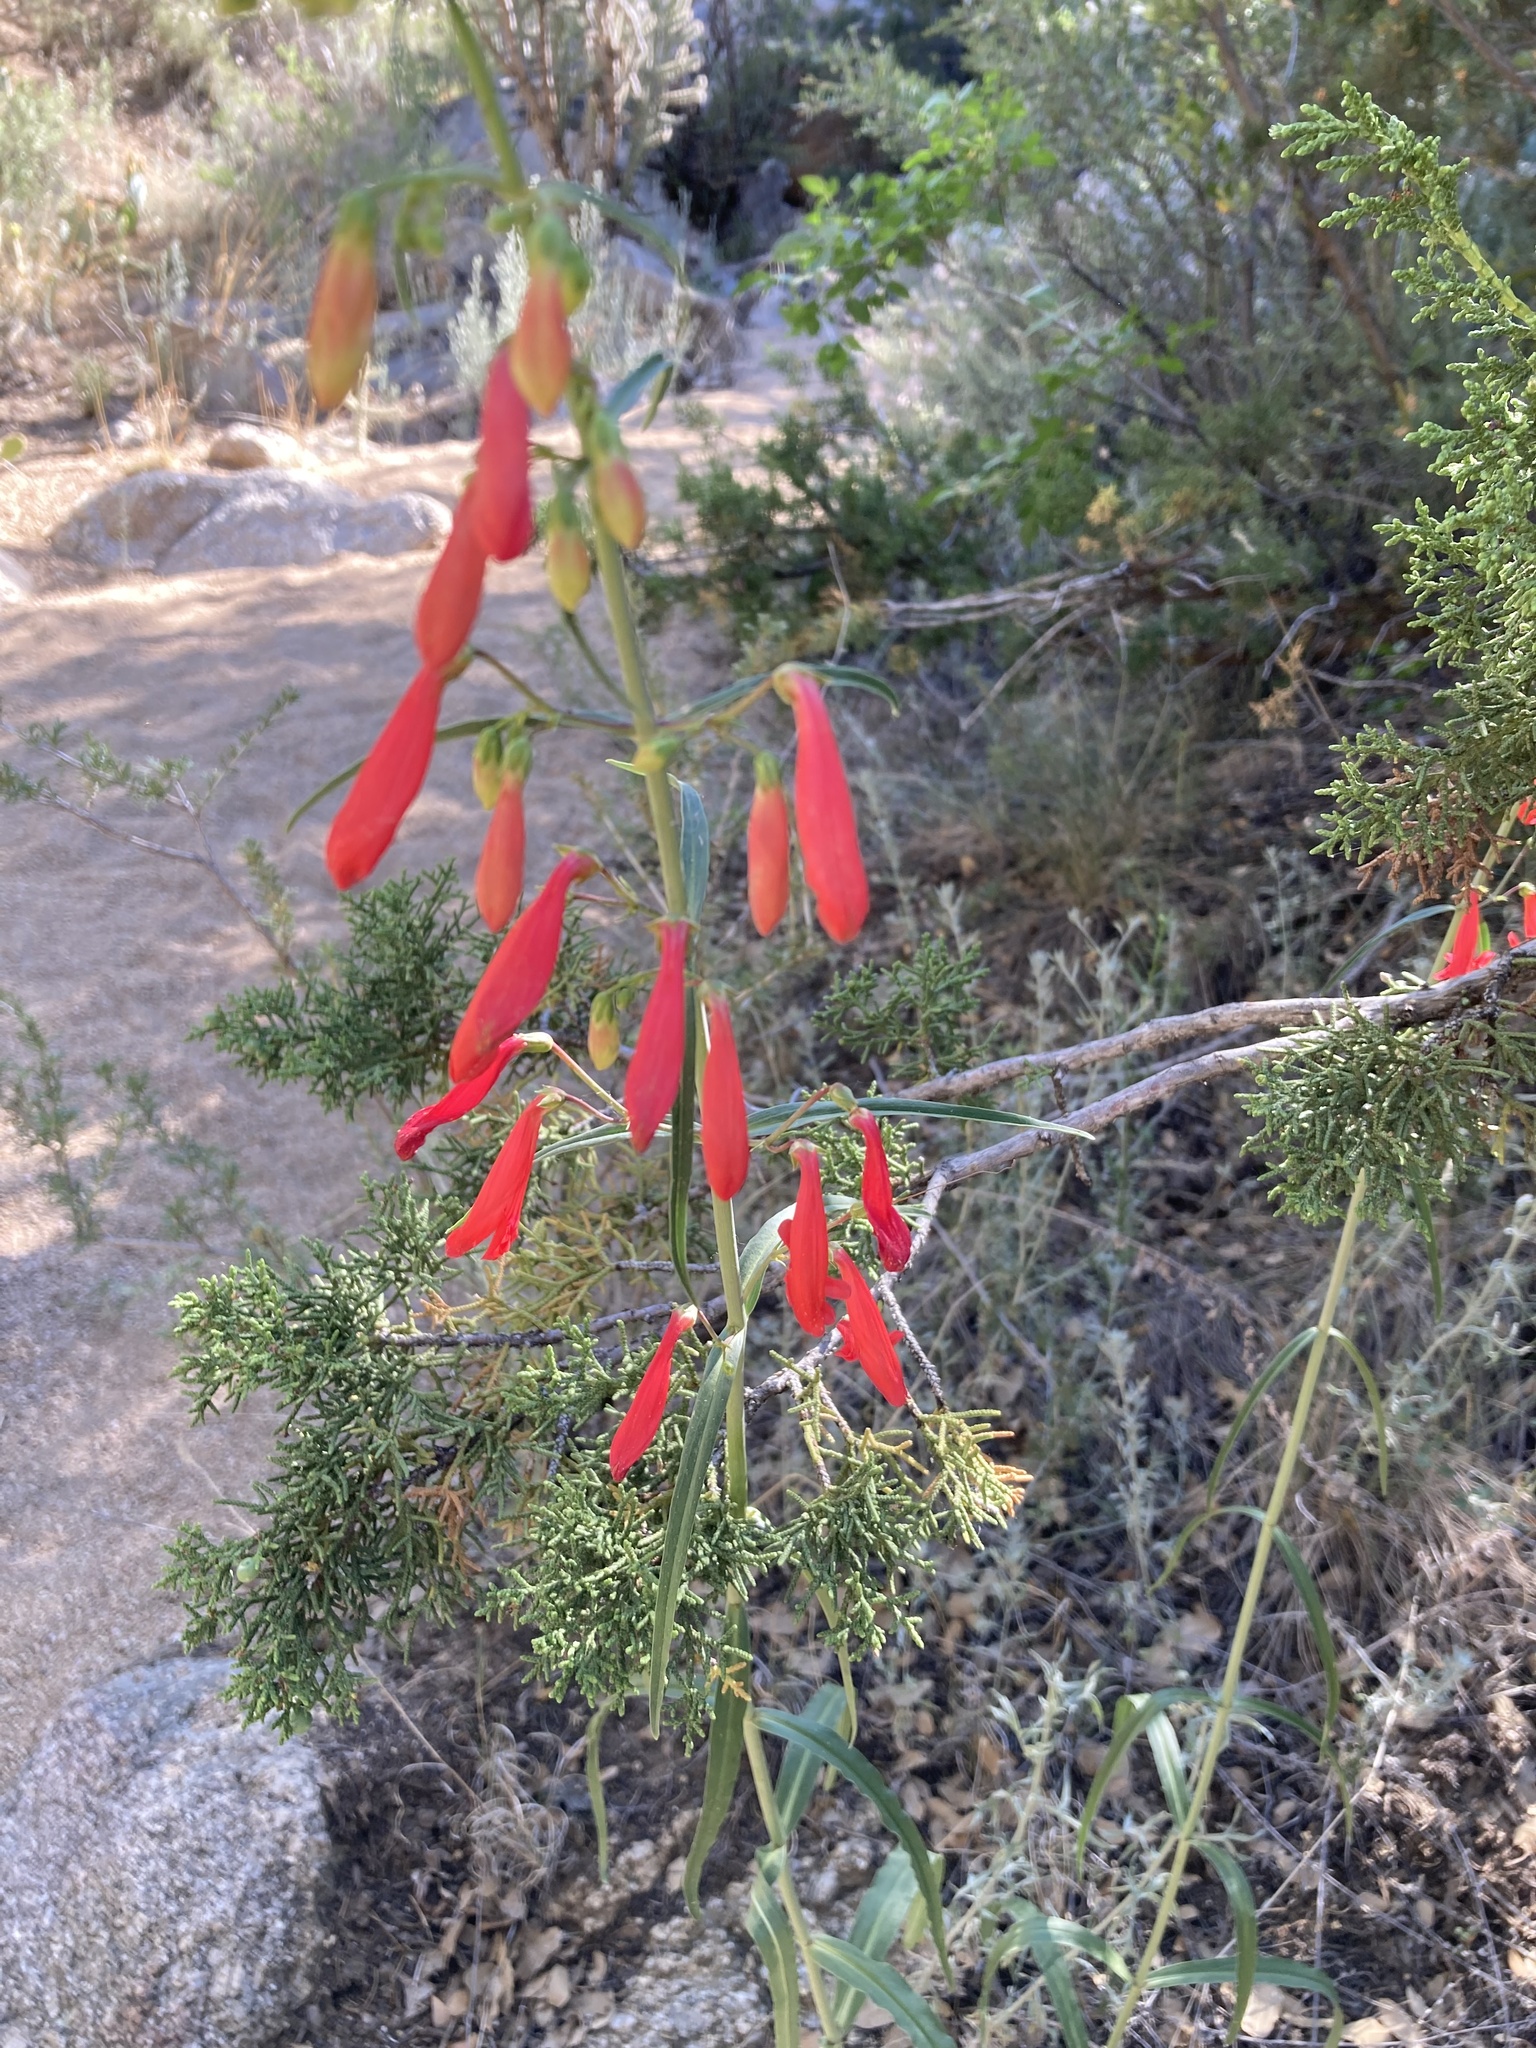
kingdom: Plantae
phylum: Tracheophyta
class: Magnoliopsida
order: Lamiales
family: Plantaginaceae
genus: Penstemon
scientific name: Penstemon barbatus
